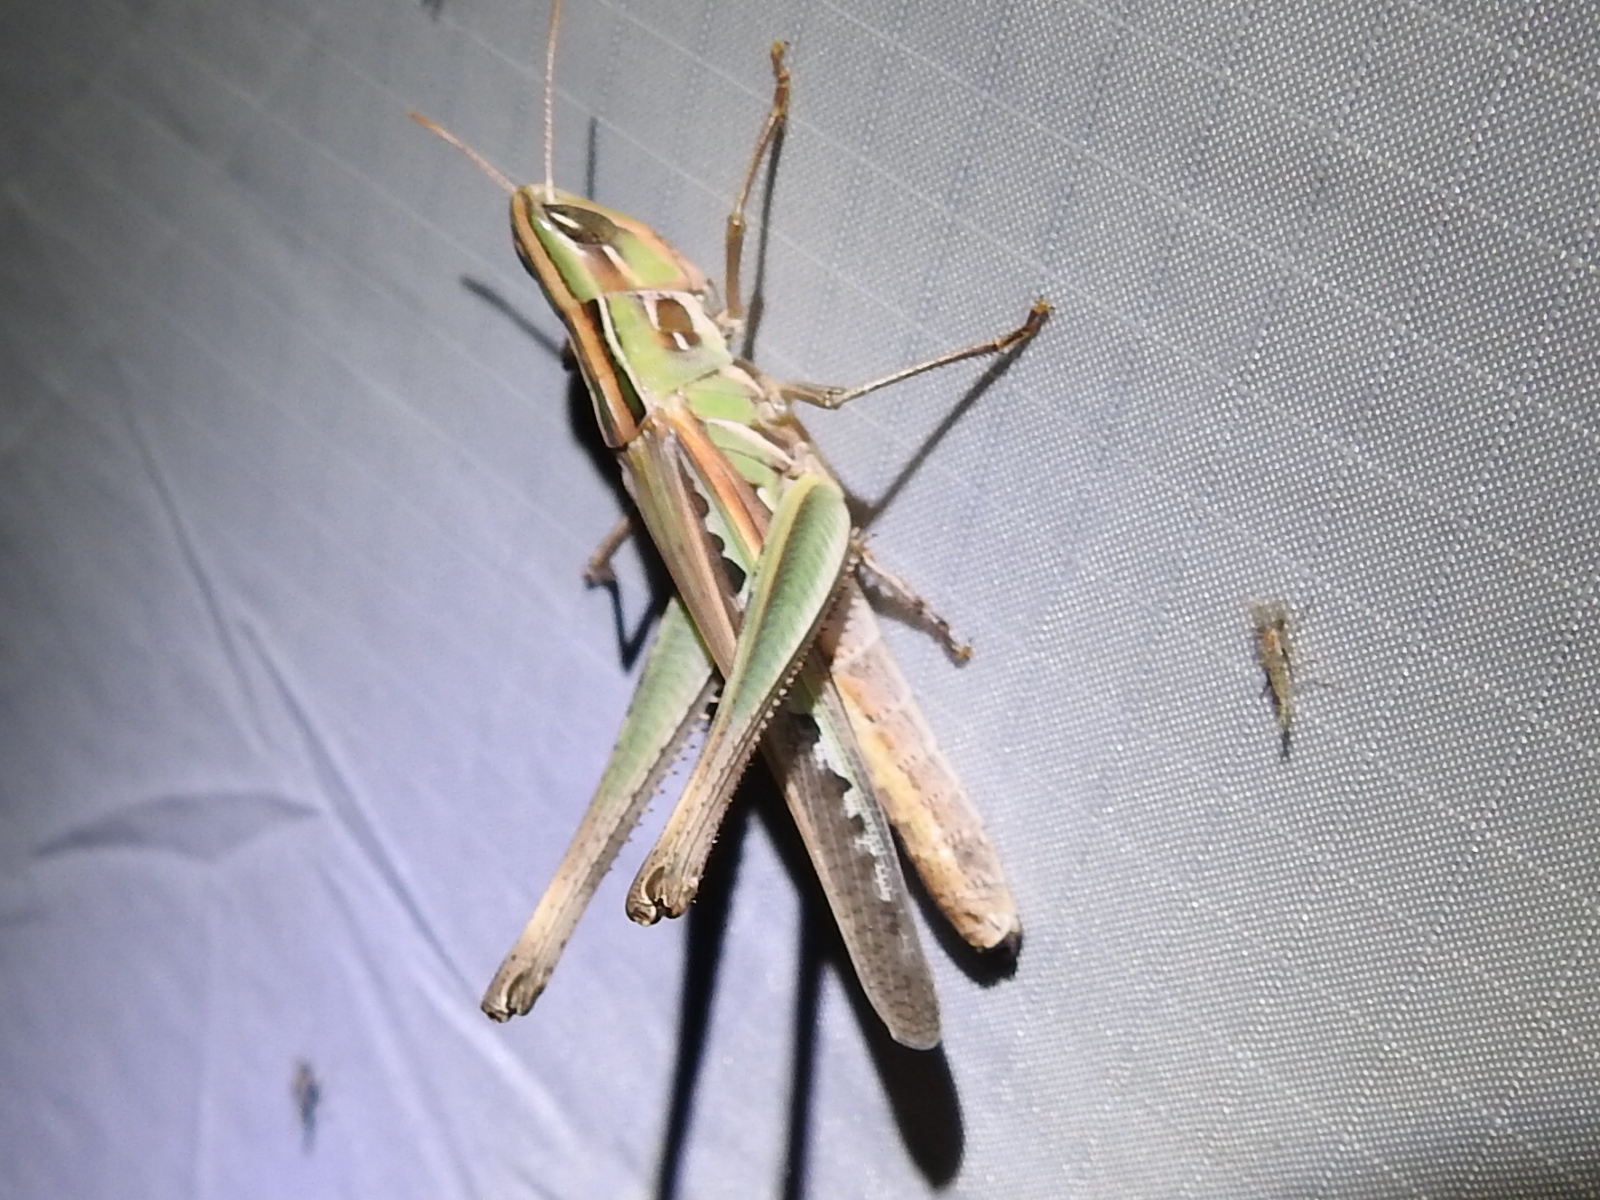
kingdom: Animalia
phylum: Arthropoda
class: Insecta
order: Orthoptera
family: Acrididae
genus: Syrbula
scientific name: Syrbula admirabilis
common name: Handsome grasshopper
